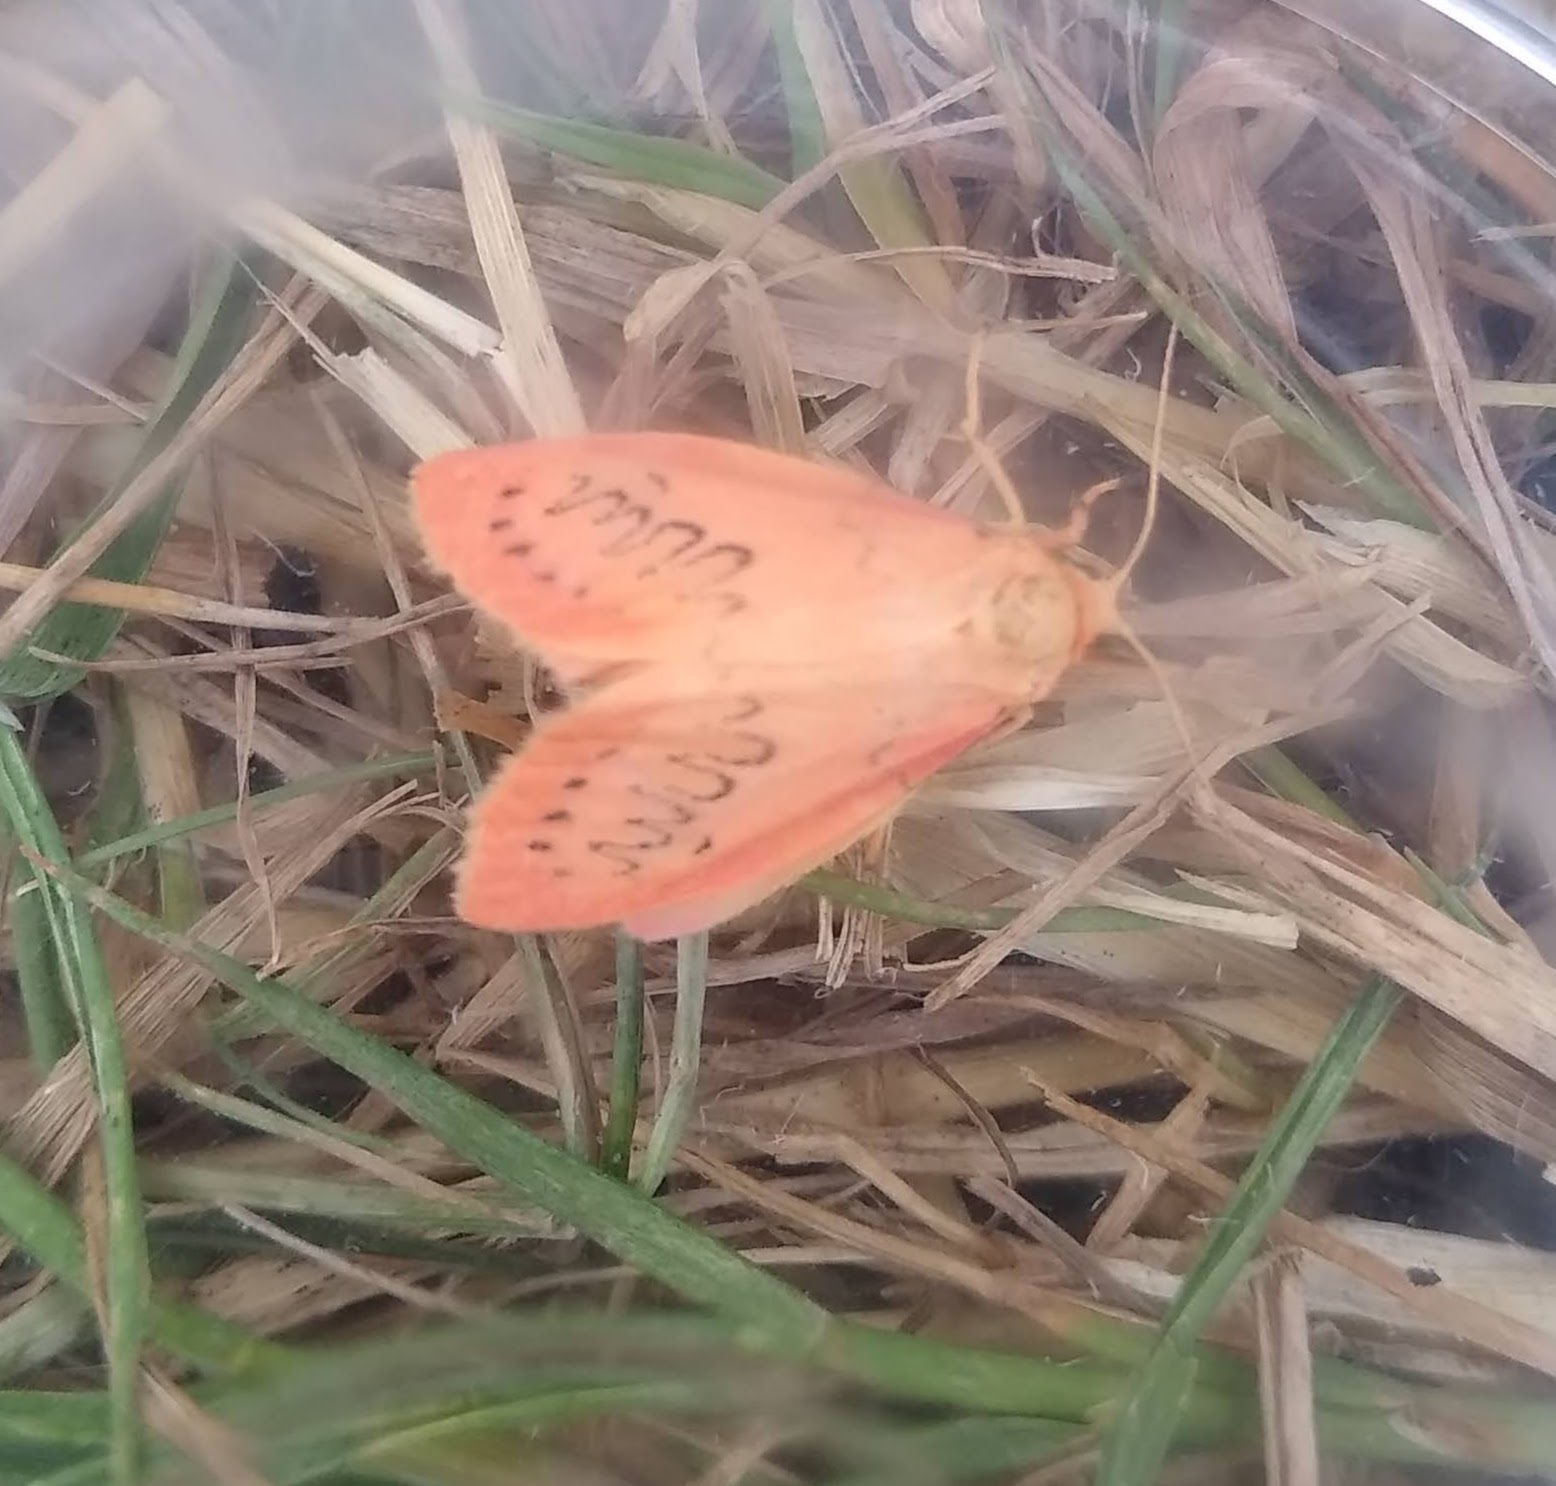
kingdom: Animalia
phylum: Arthropoda
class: Insecta
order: Lepidoptera
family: Erebidae
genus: Miltochrista
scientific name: Miltochrista miniata
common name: Rosy footman
